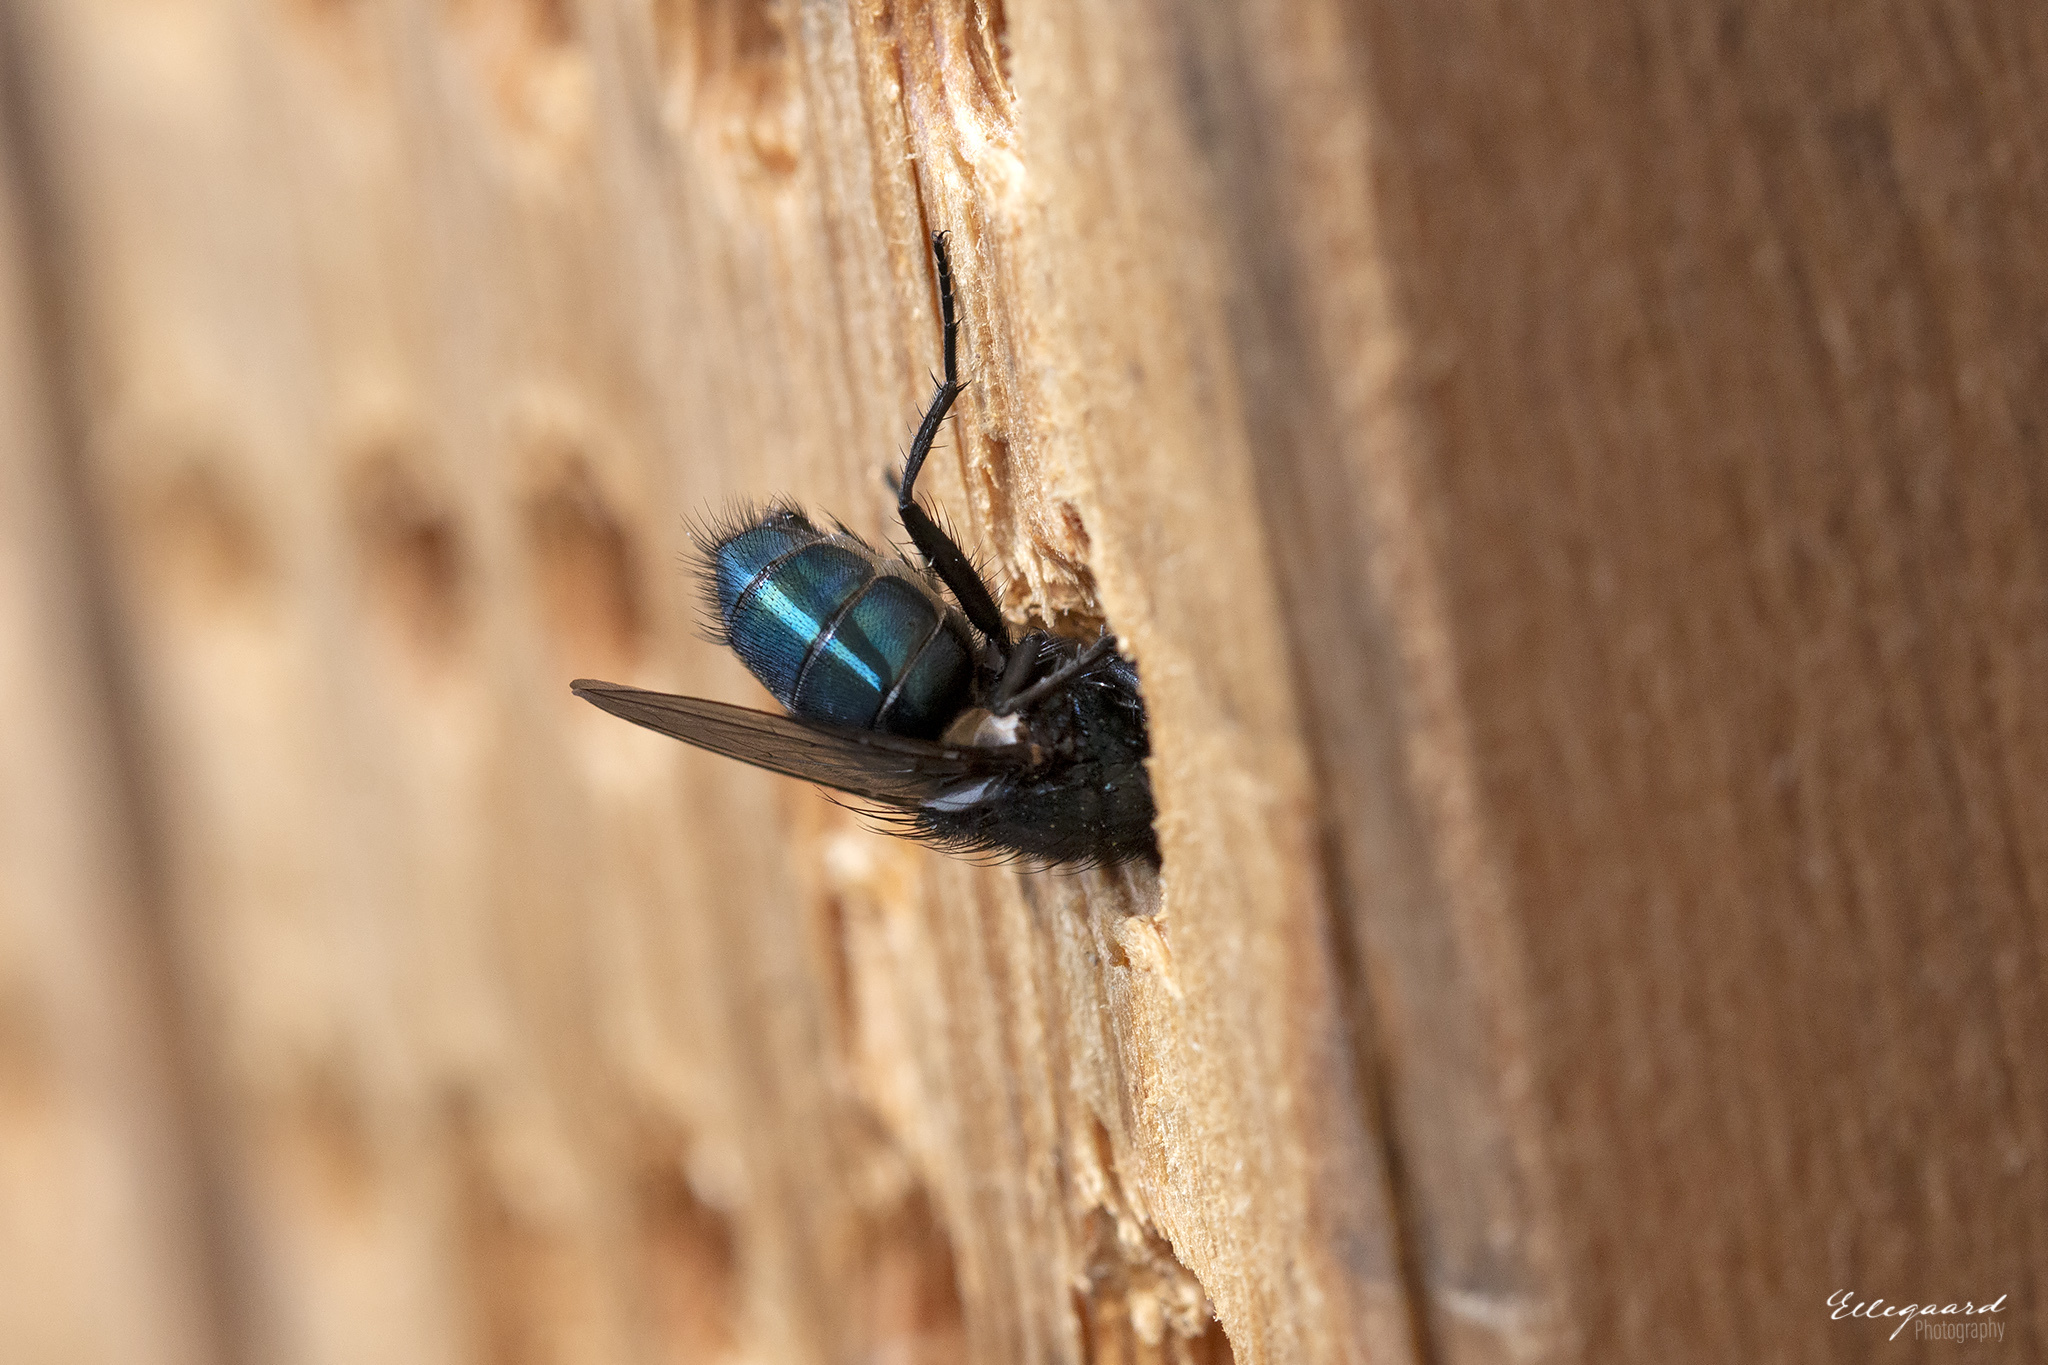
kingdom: Animalia
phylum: Arthropoda
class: Insecta
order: Diptera
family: Calliphoridae
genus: Protocalliphora
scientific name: Protocalliphora azurea
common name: Bird blowfly
